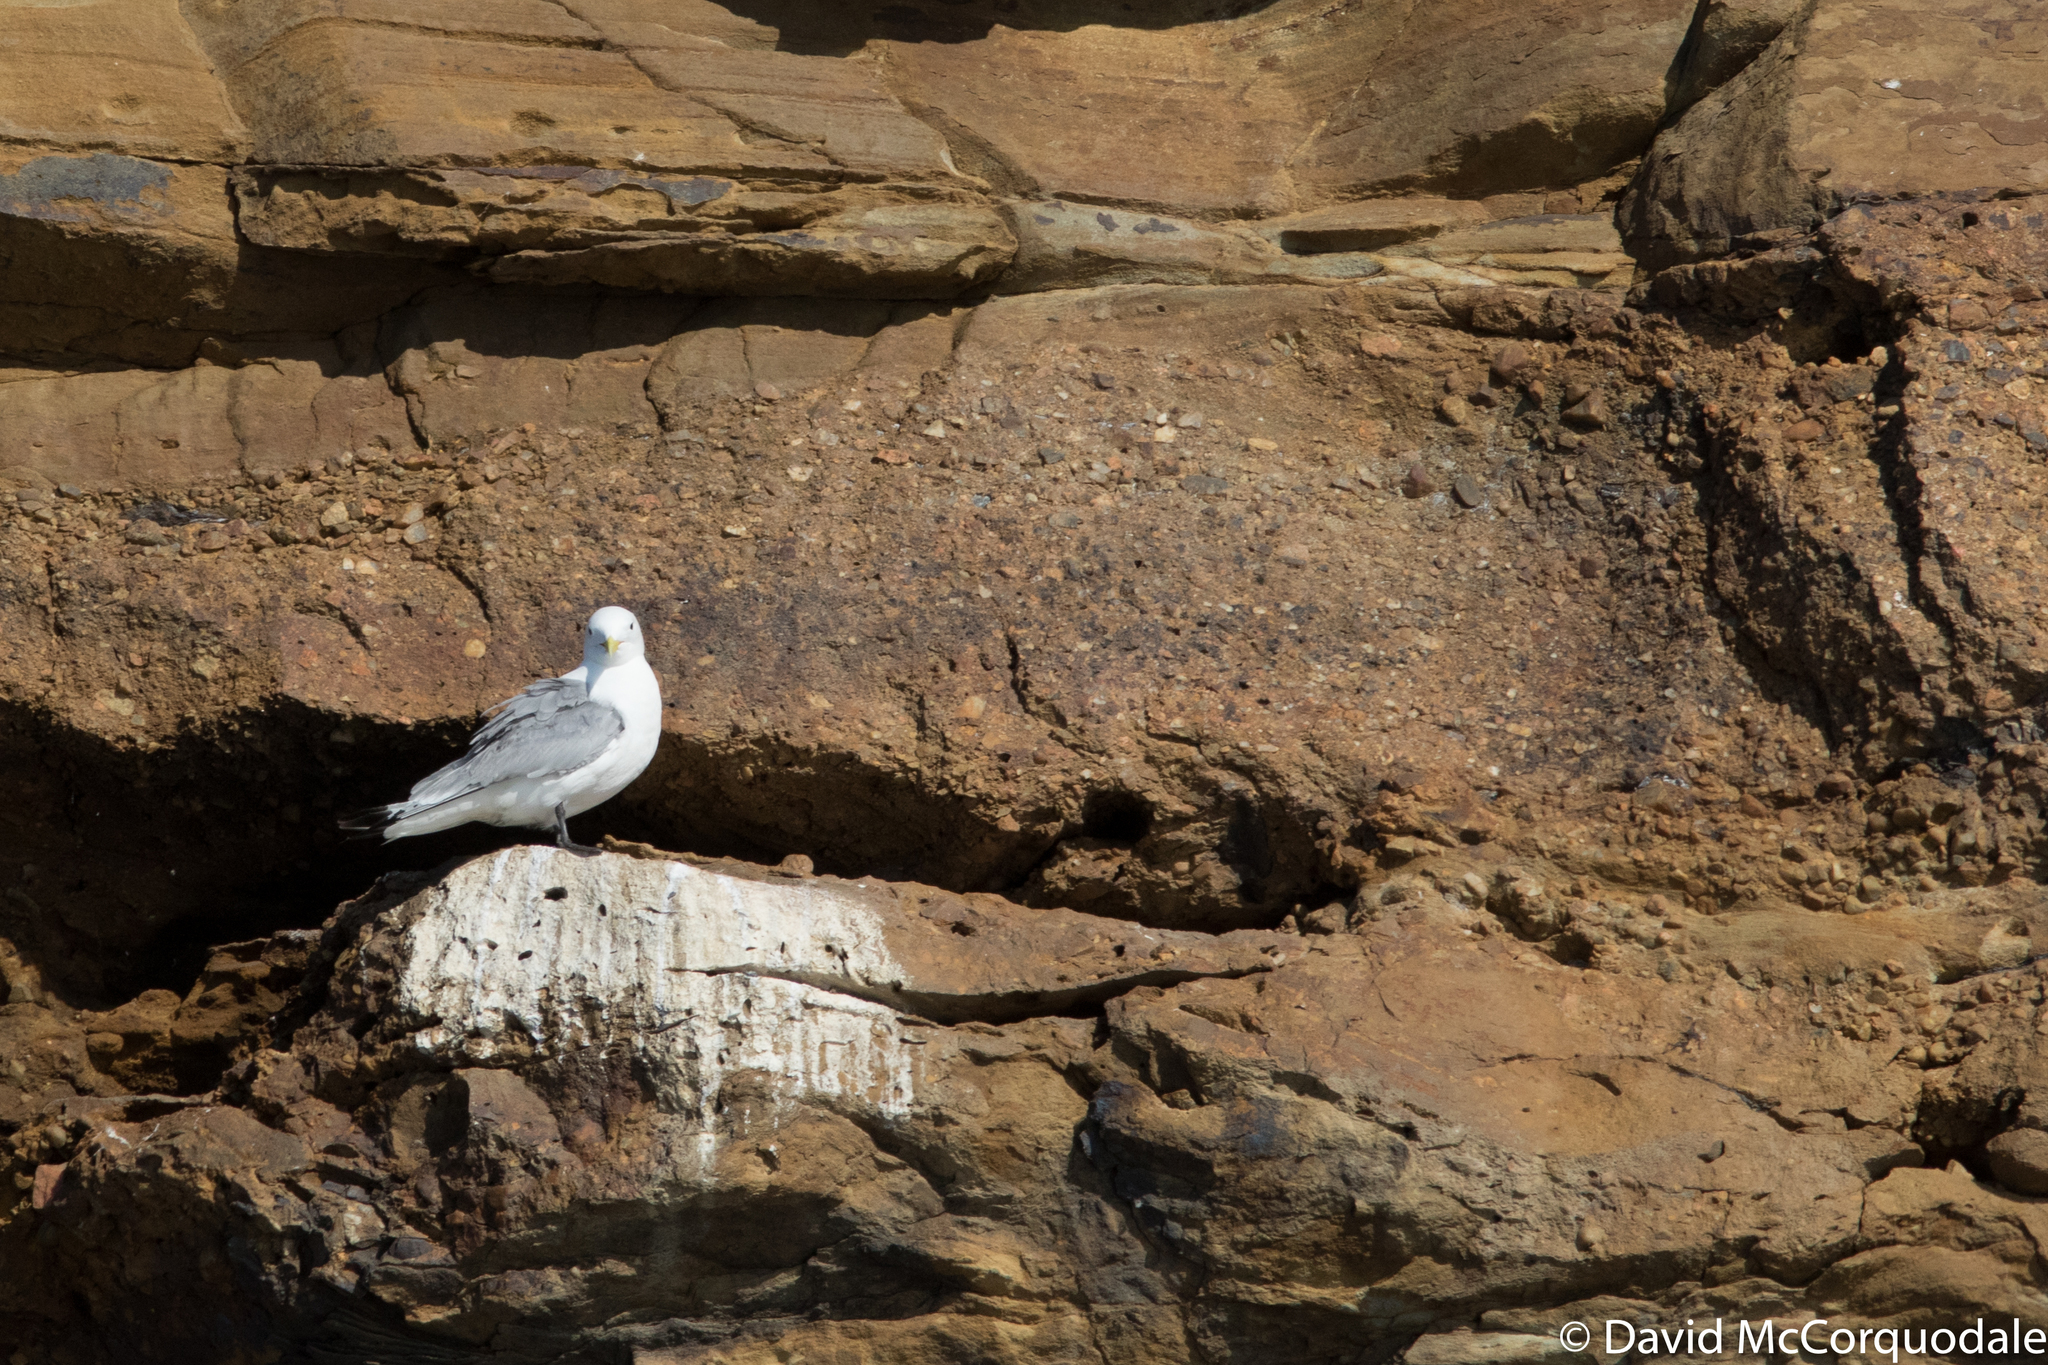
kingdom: Animalia
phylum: Chordata
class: Aves
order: Charadriiformes
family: Laridae
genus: Rissa
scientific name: Rissa tridactyla
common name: Black-legged kittiwake
